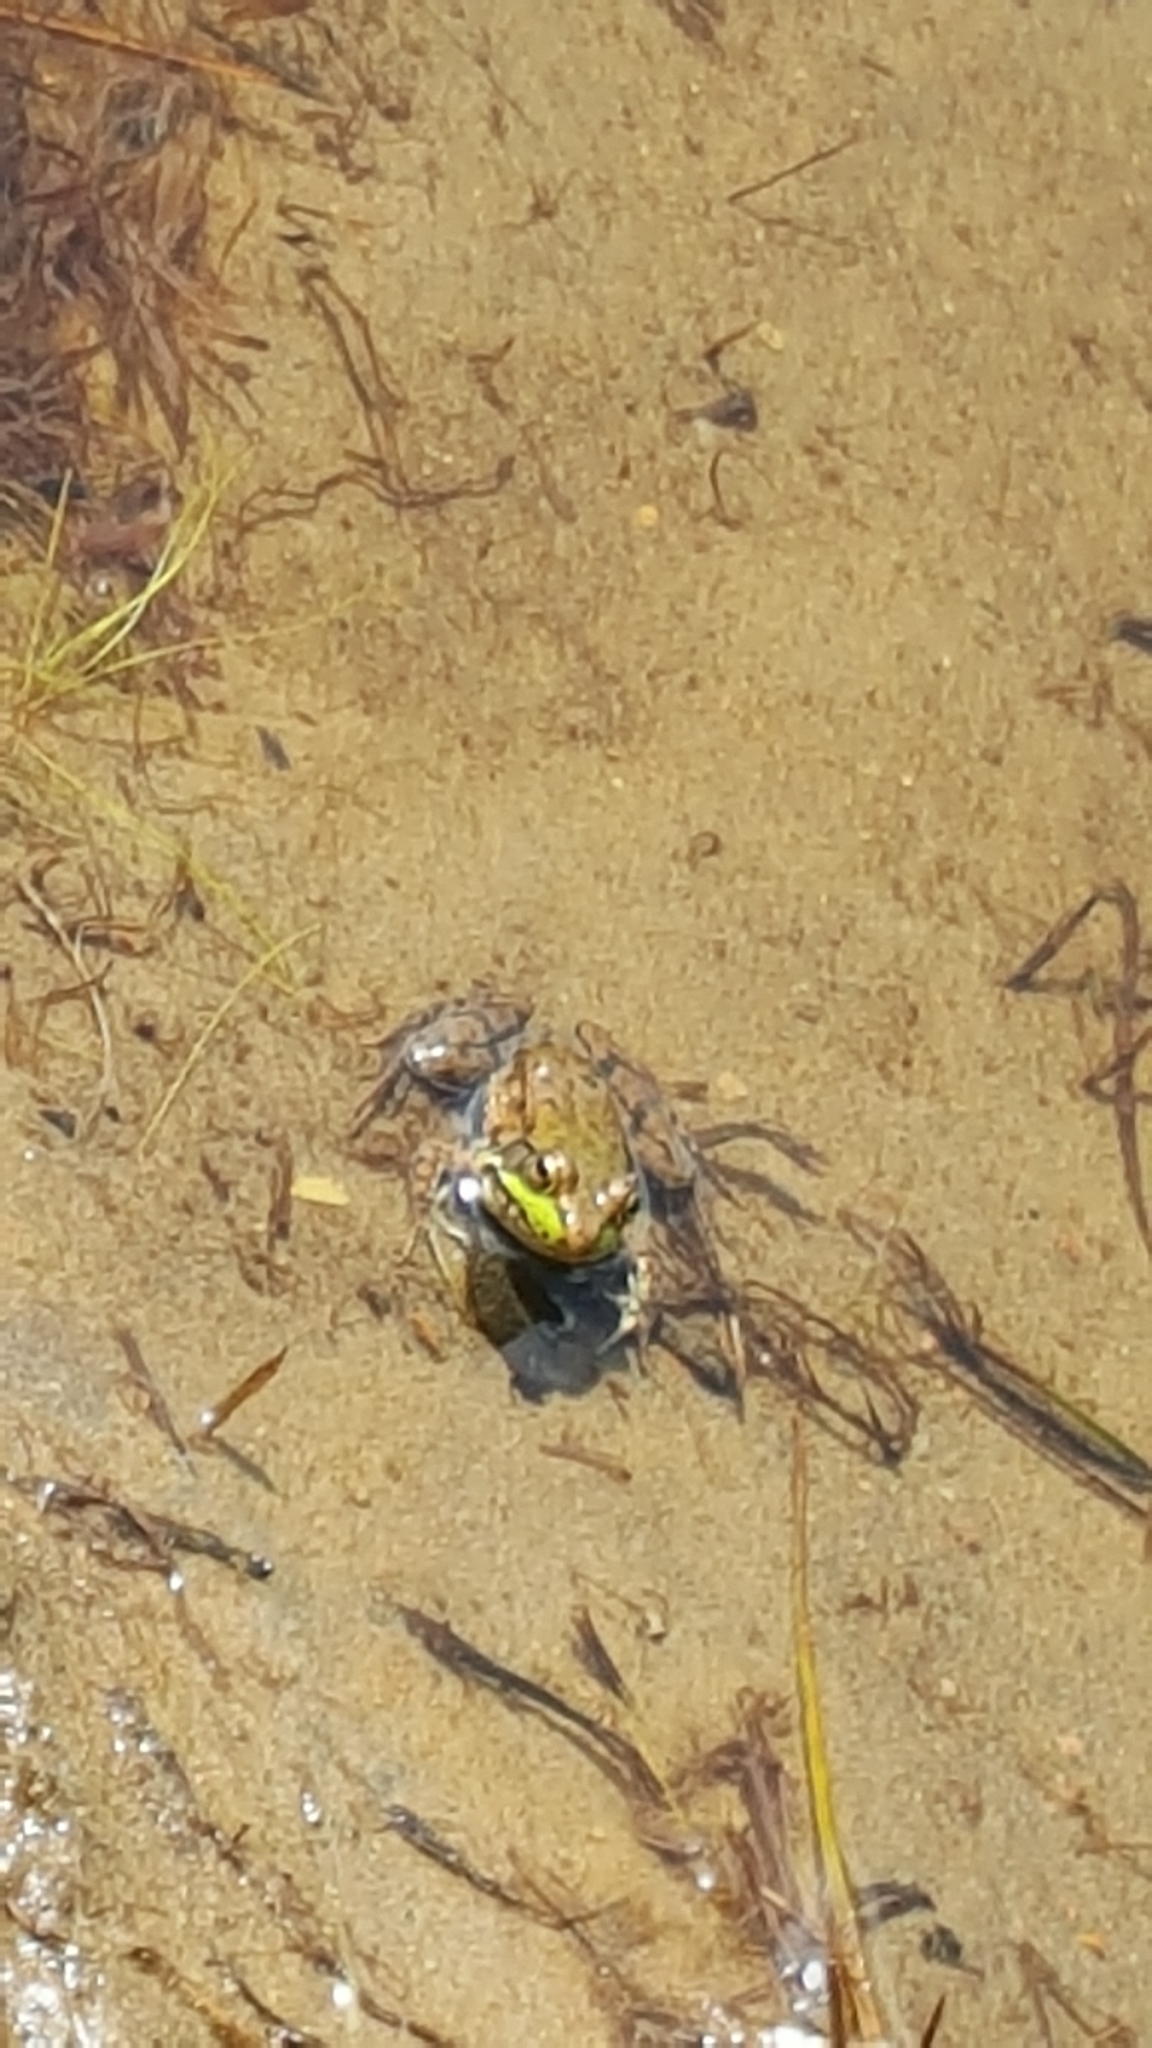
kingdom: Animalia
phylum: Chordata
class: Amphibia
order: Anura
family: Ranidae
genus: Lithobates
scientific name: Lithobates clamitans
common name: Green frog
